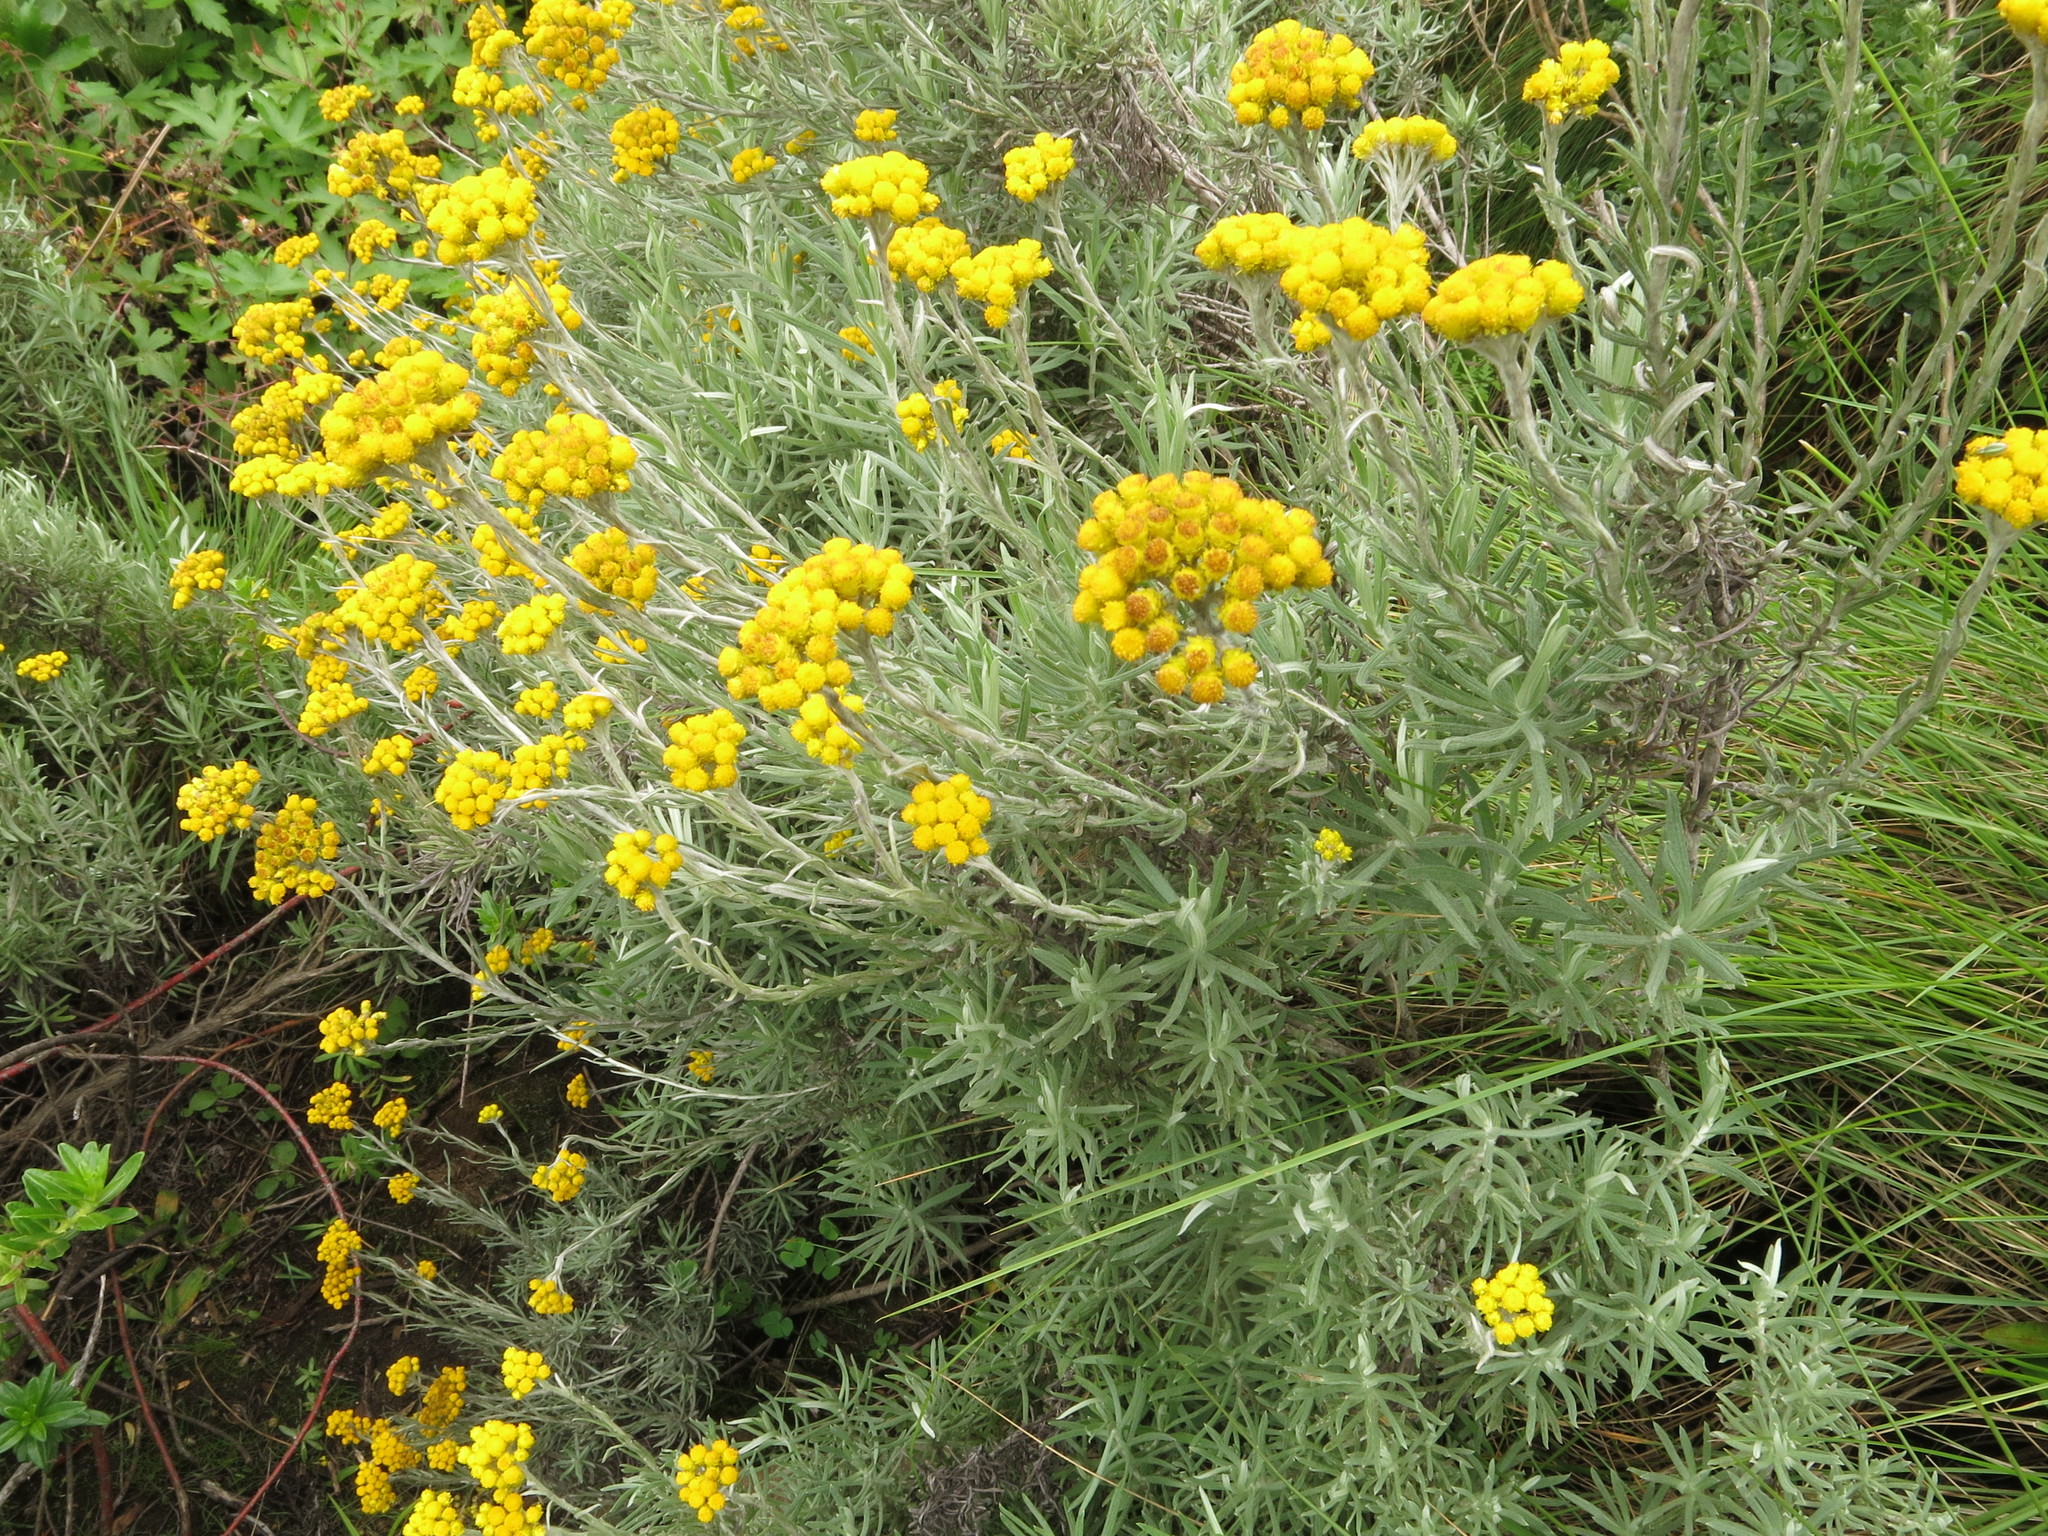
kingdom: Plantae
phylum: Tracheophyta
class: Magnoliopsida
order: Asterales
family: Asteraceae
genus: Helichrysum
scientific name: Helichrysum splendidum
